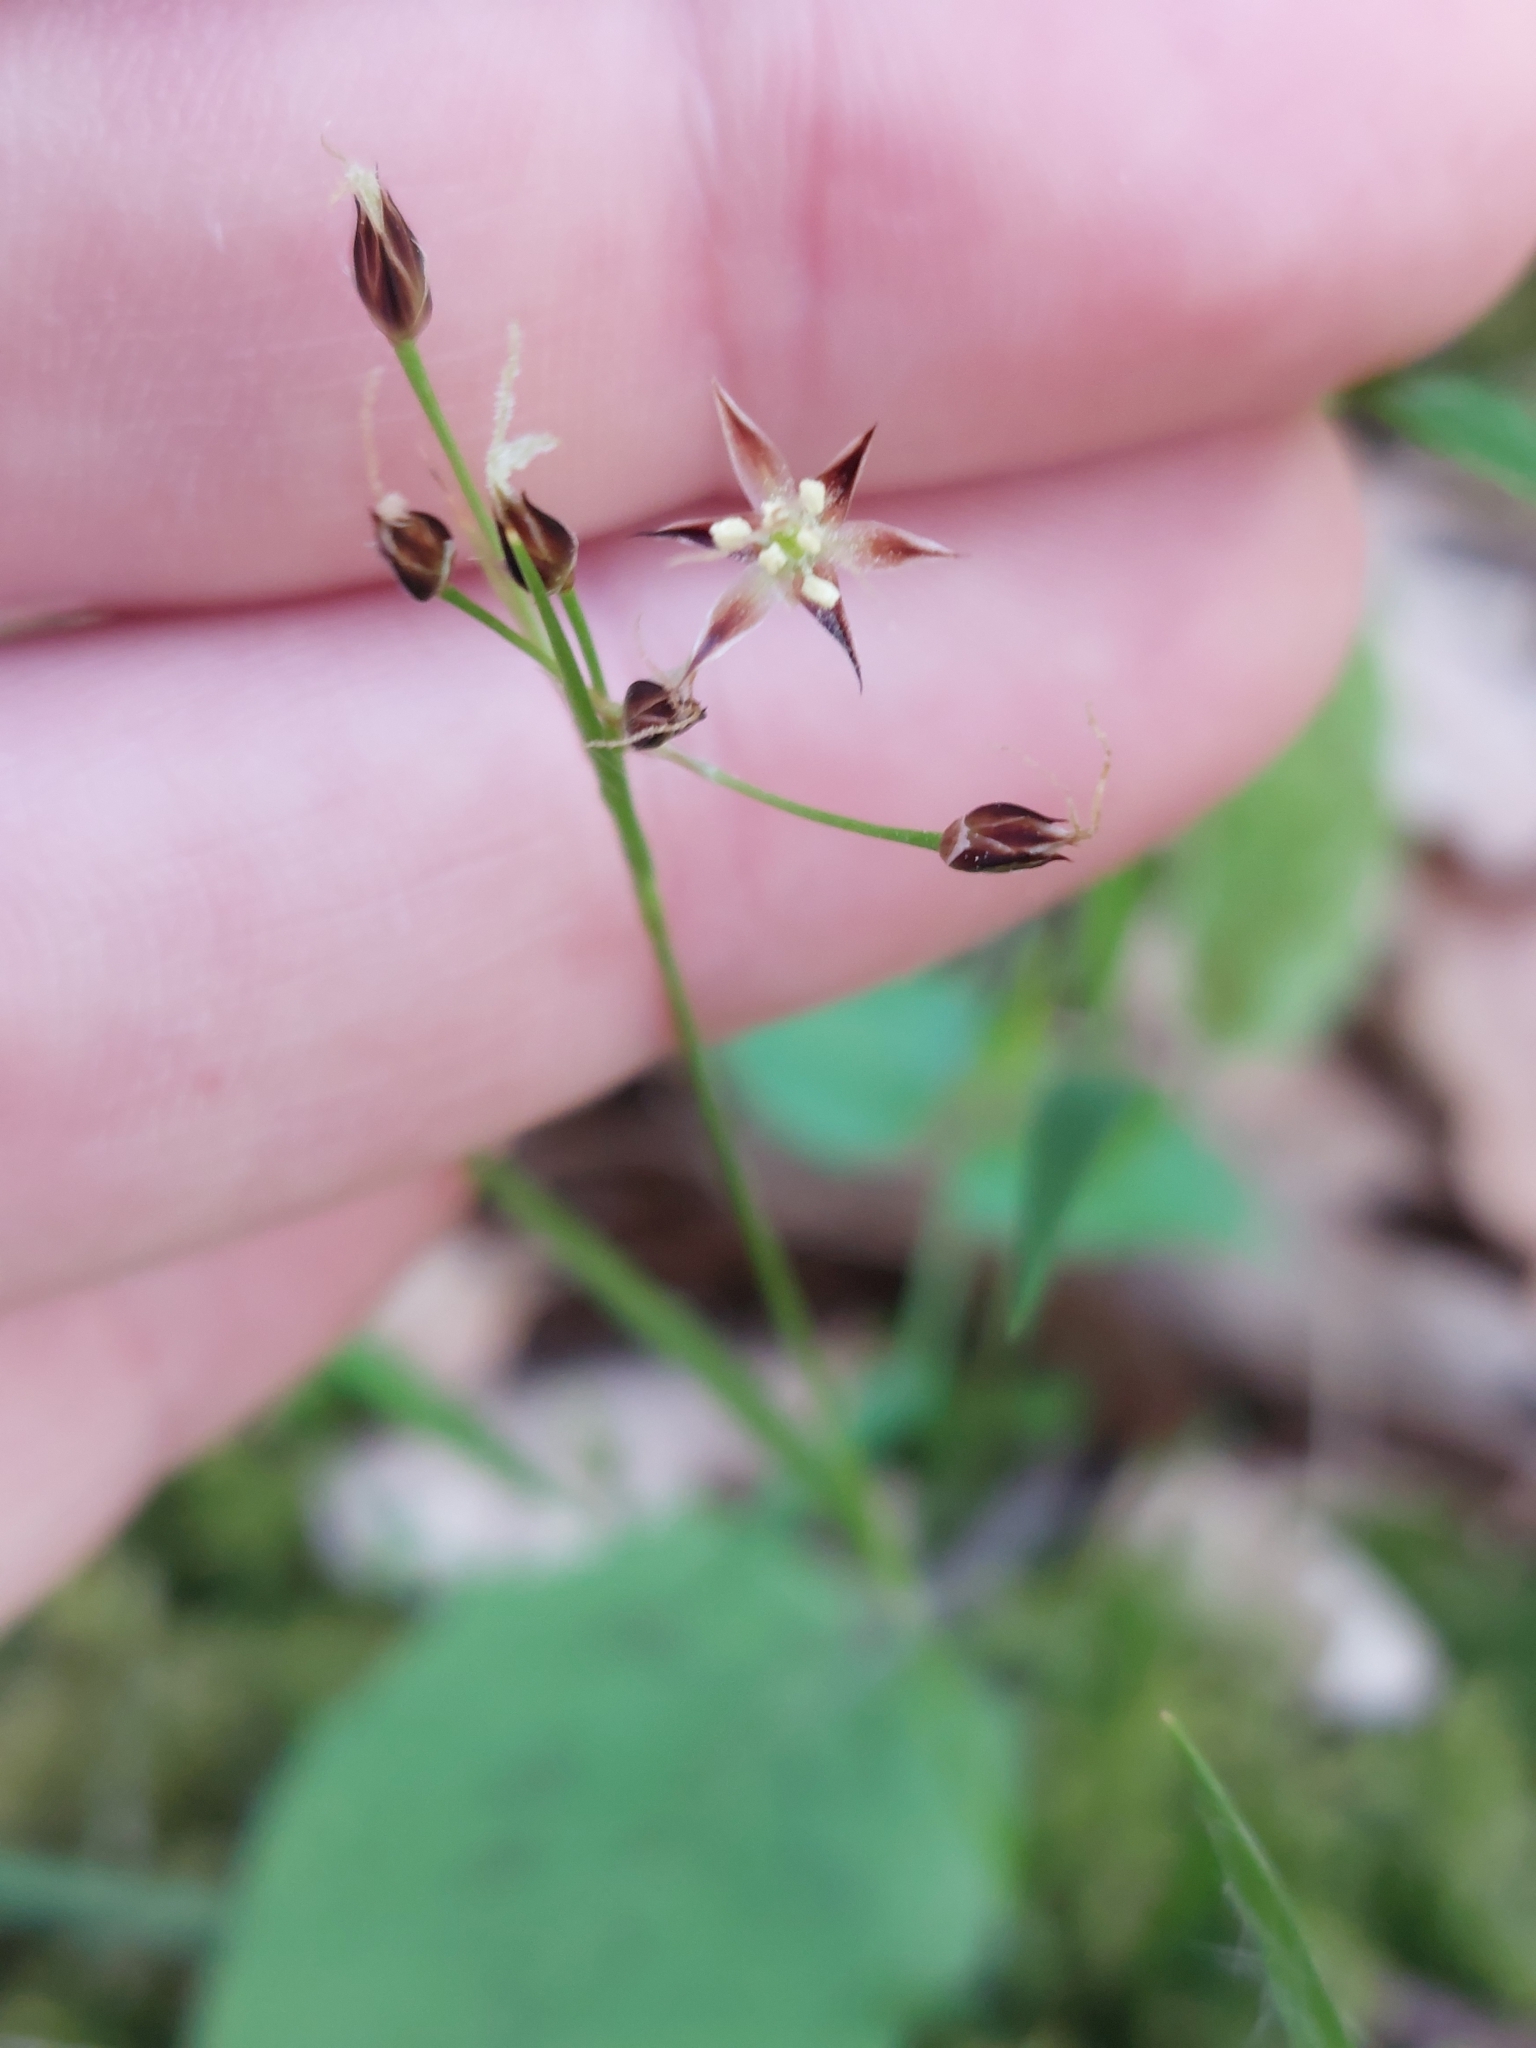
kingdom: Plantae
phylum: Tracheophyta
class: Liliopsida
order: Poales
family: Juncaceae
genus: Luzula
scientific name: Luzula forsteri
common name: Southern wood-rush
